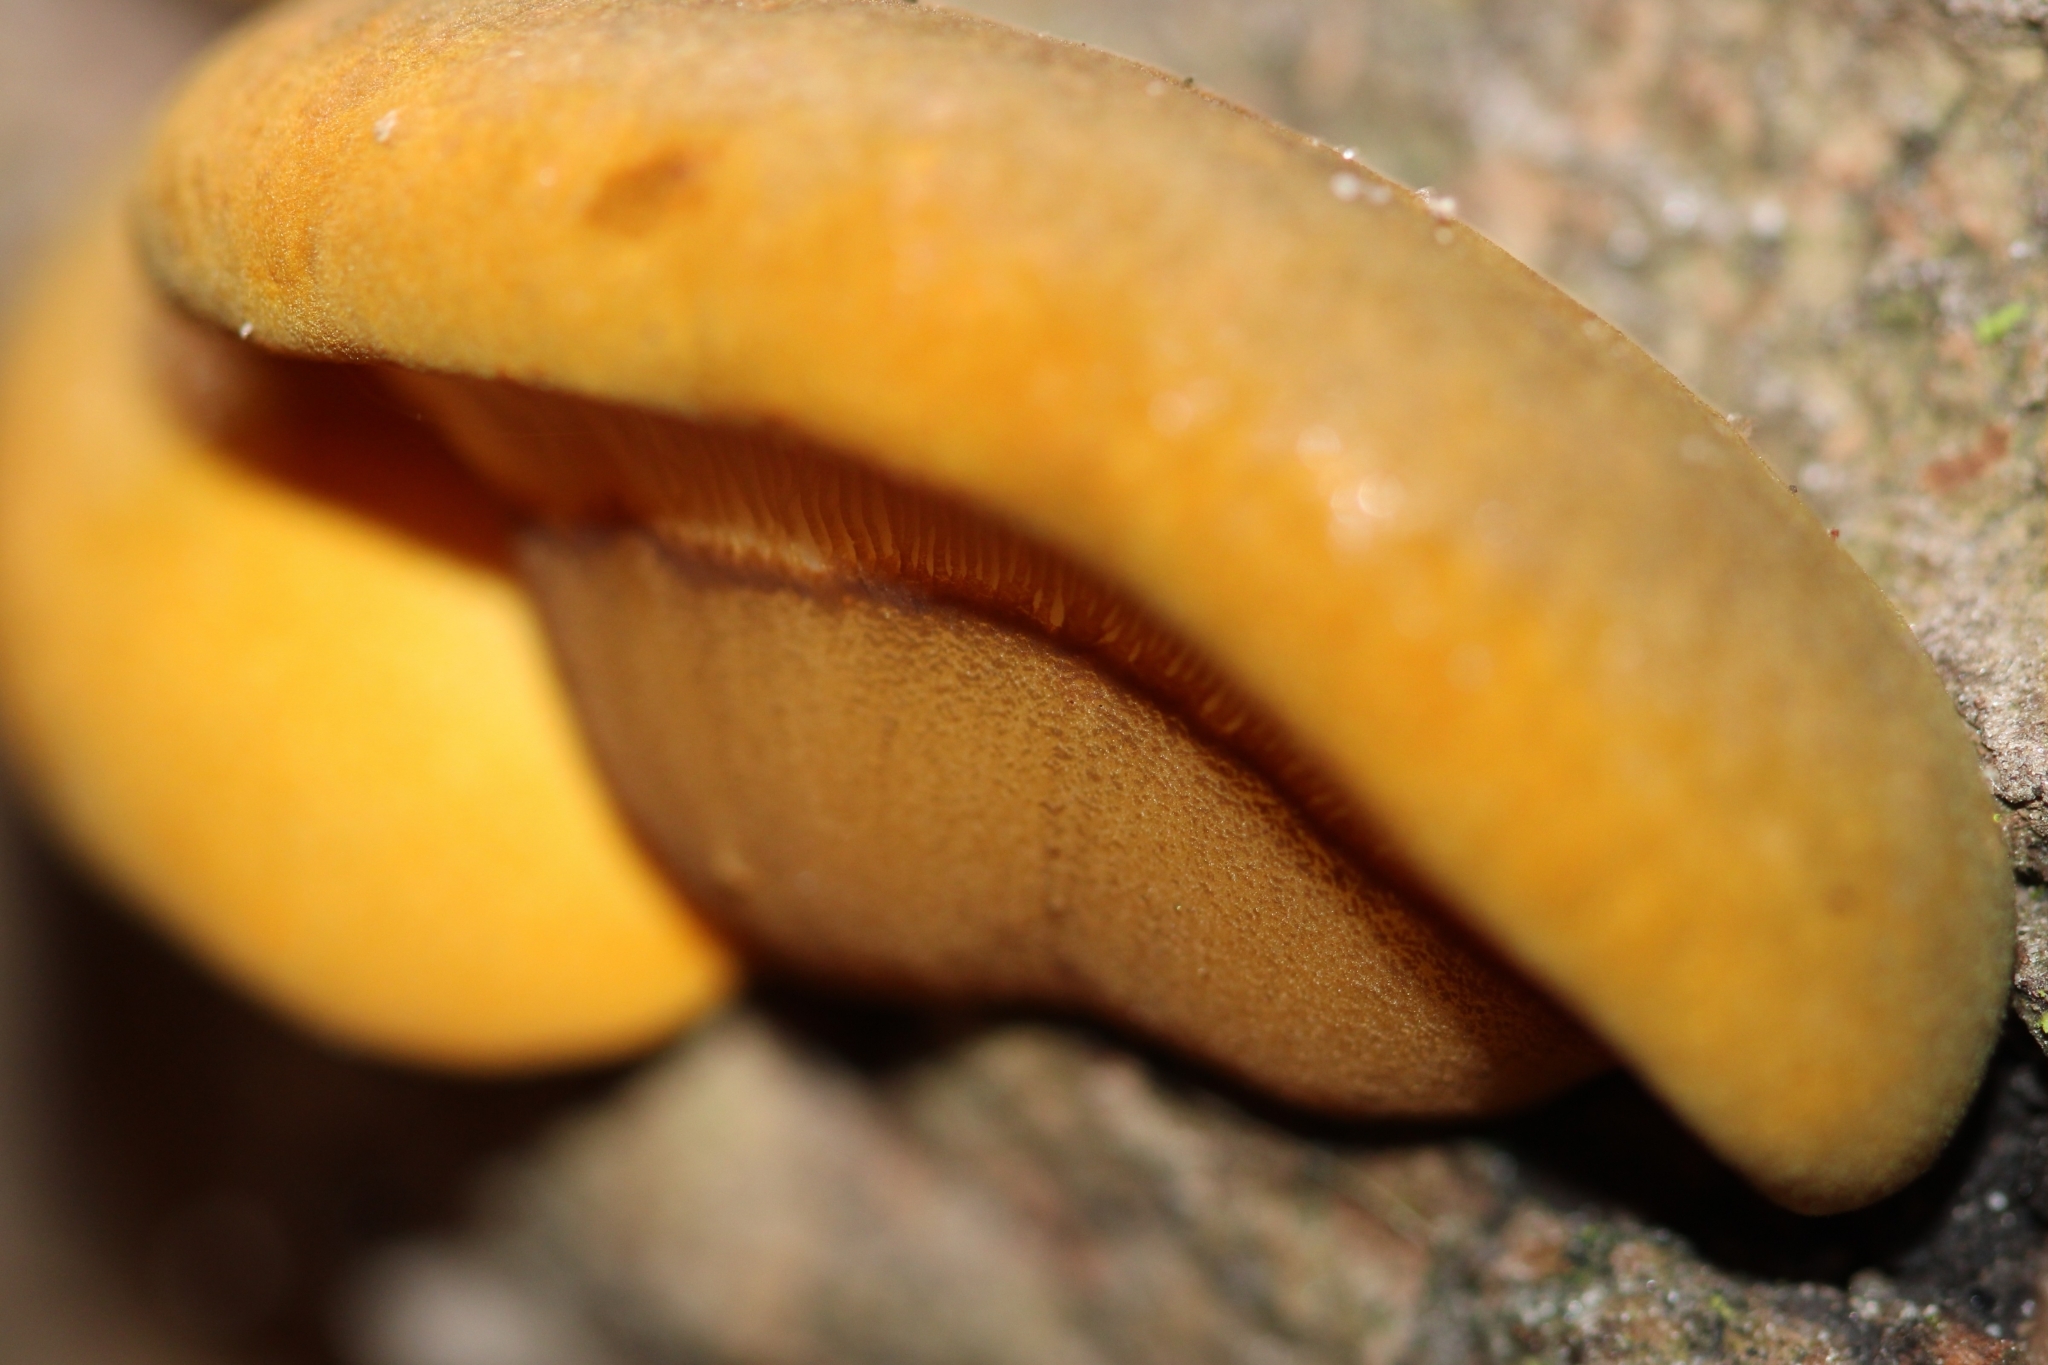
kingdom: Fungi
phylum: Basidiomycota
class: Agaricomycetes
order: Agaricales
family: Sarcomyxaceae
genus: Sarcomyxa
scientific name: Sarcomyxa serotina
